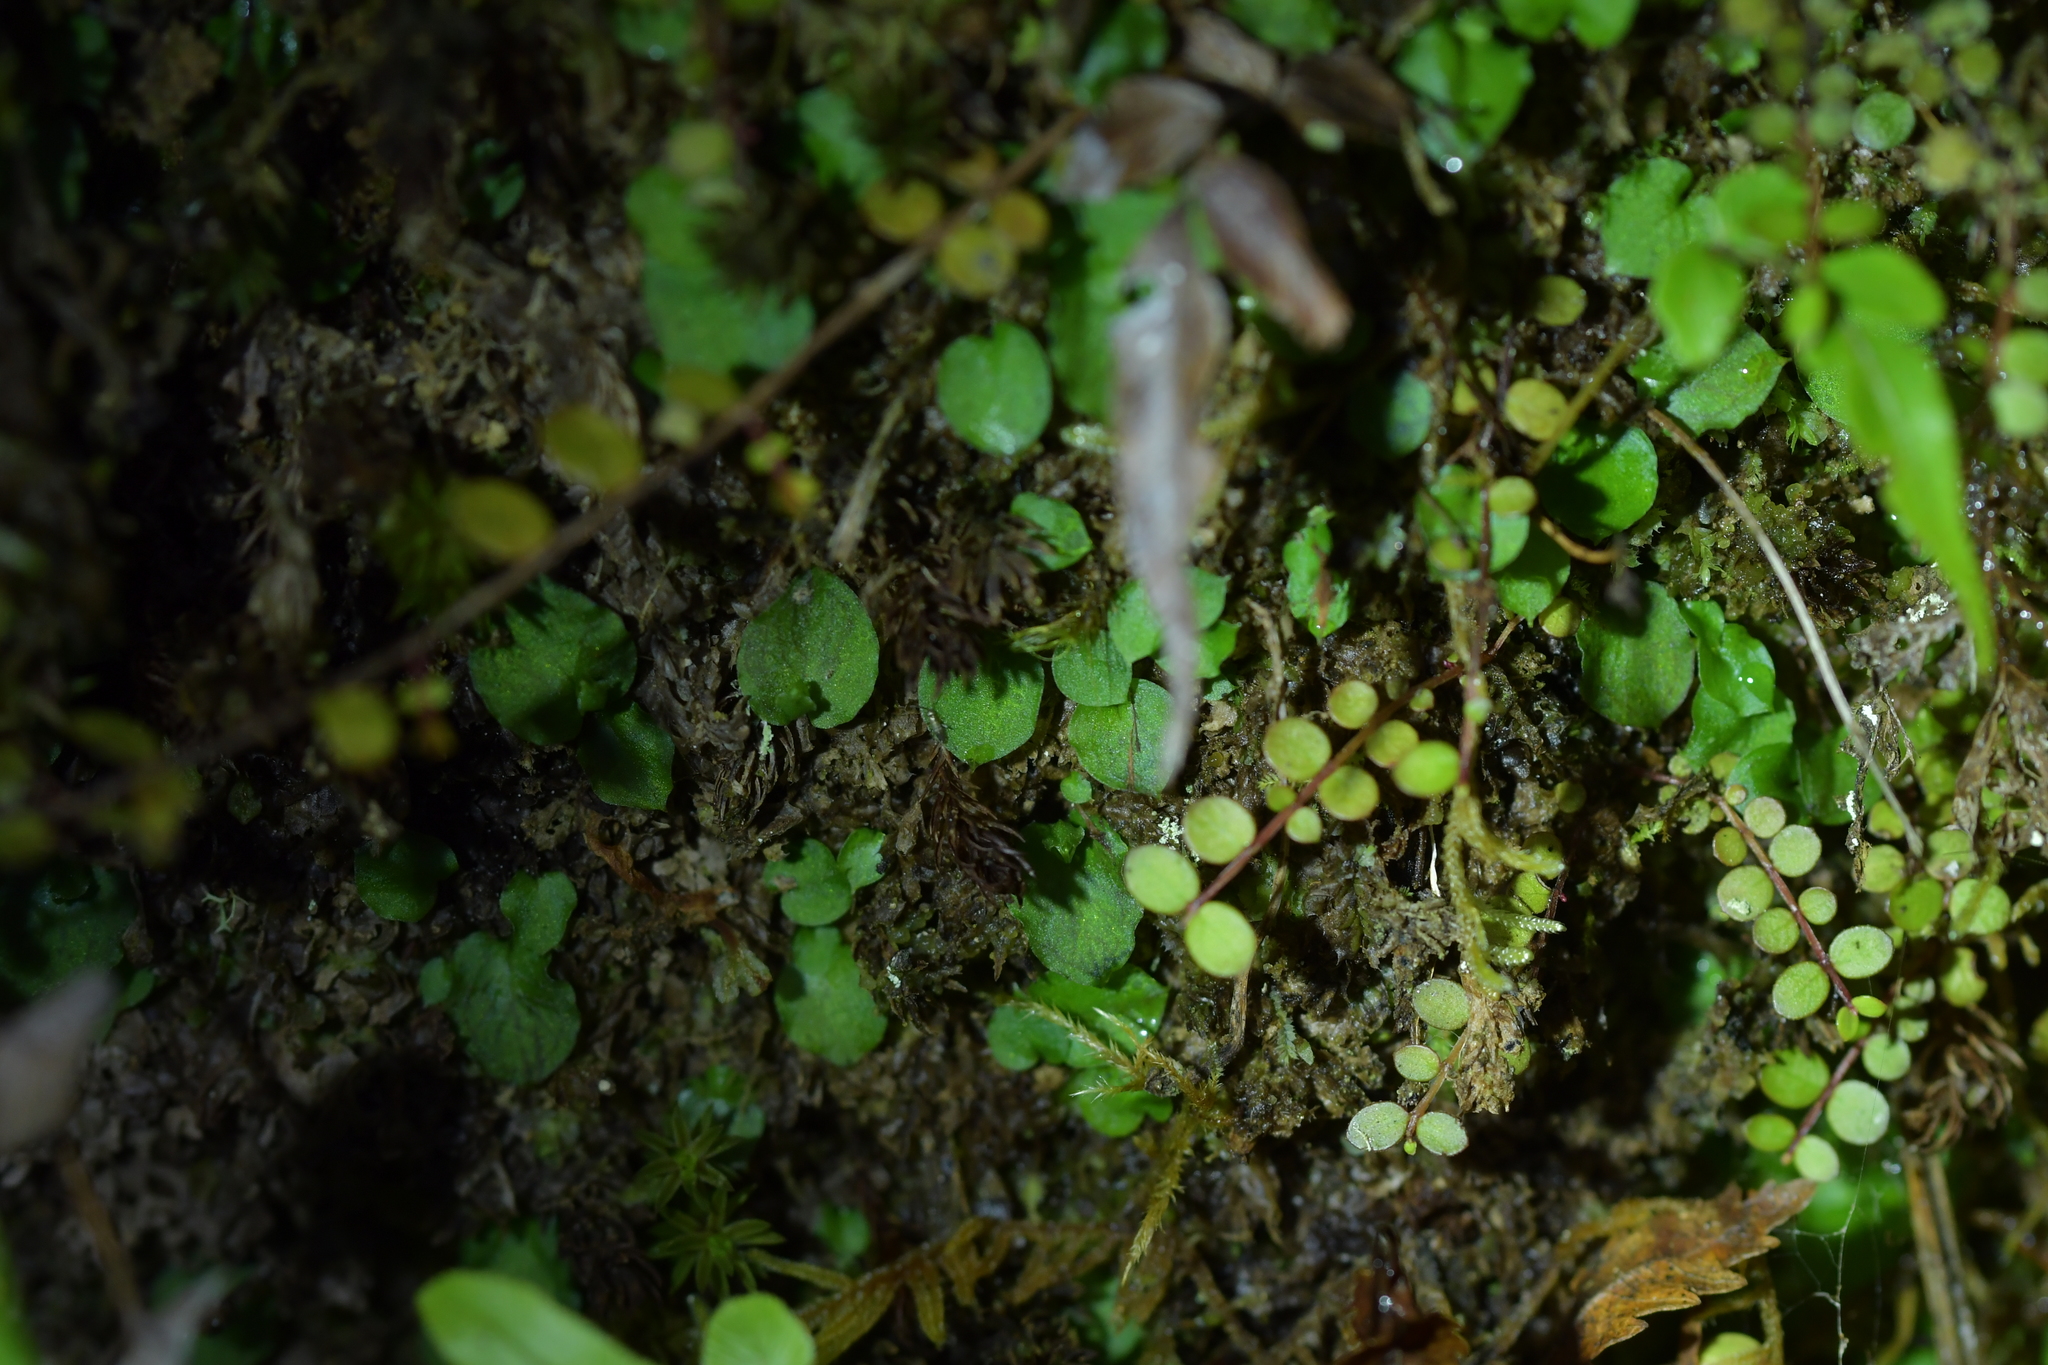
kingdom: Plantae
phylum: Tracheophyta
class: Liliopsida
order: Asparagales
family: Orchidaceae
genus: Corybas
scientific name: Corybas oblongus
